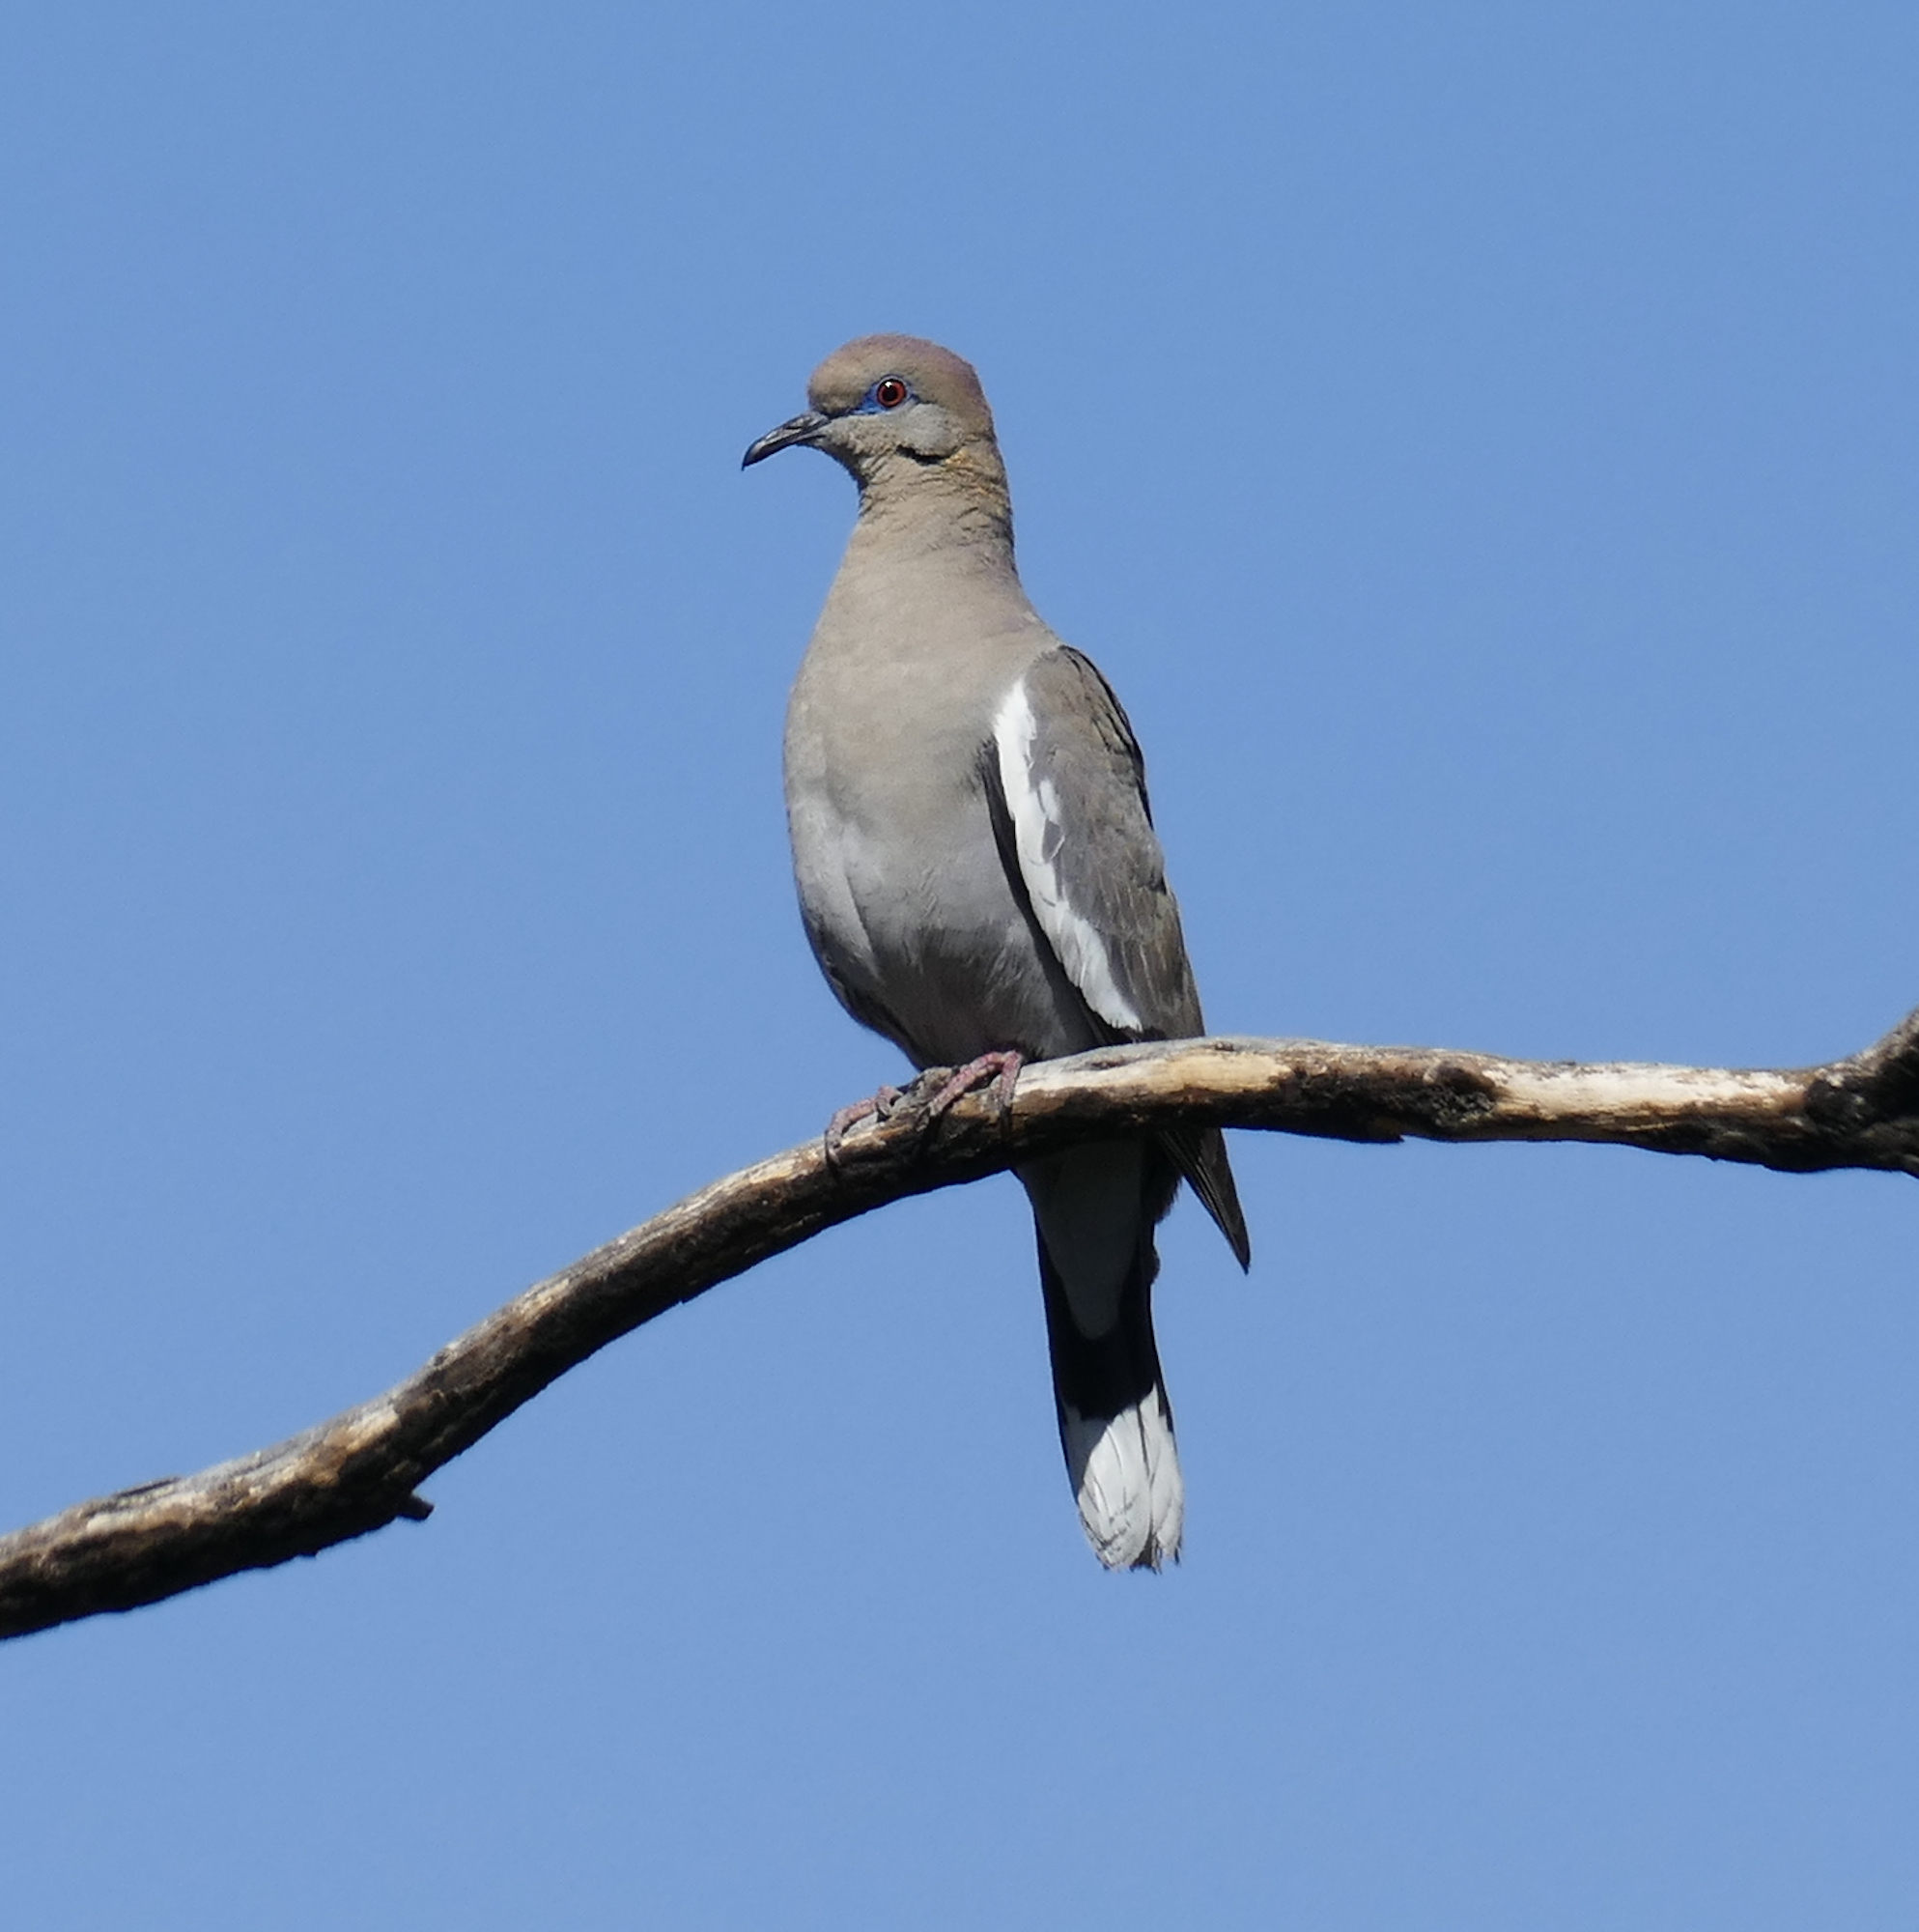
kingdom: Animalia
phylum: Chordata
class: Aves
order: Columbiformes
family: Columbidae
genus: Zenaida
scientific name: Zenaida asiatica
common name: White-winged dove
